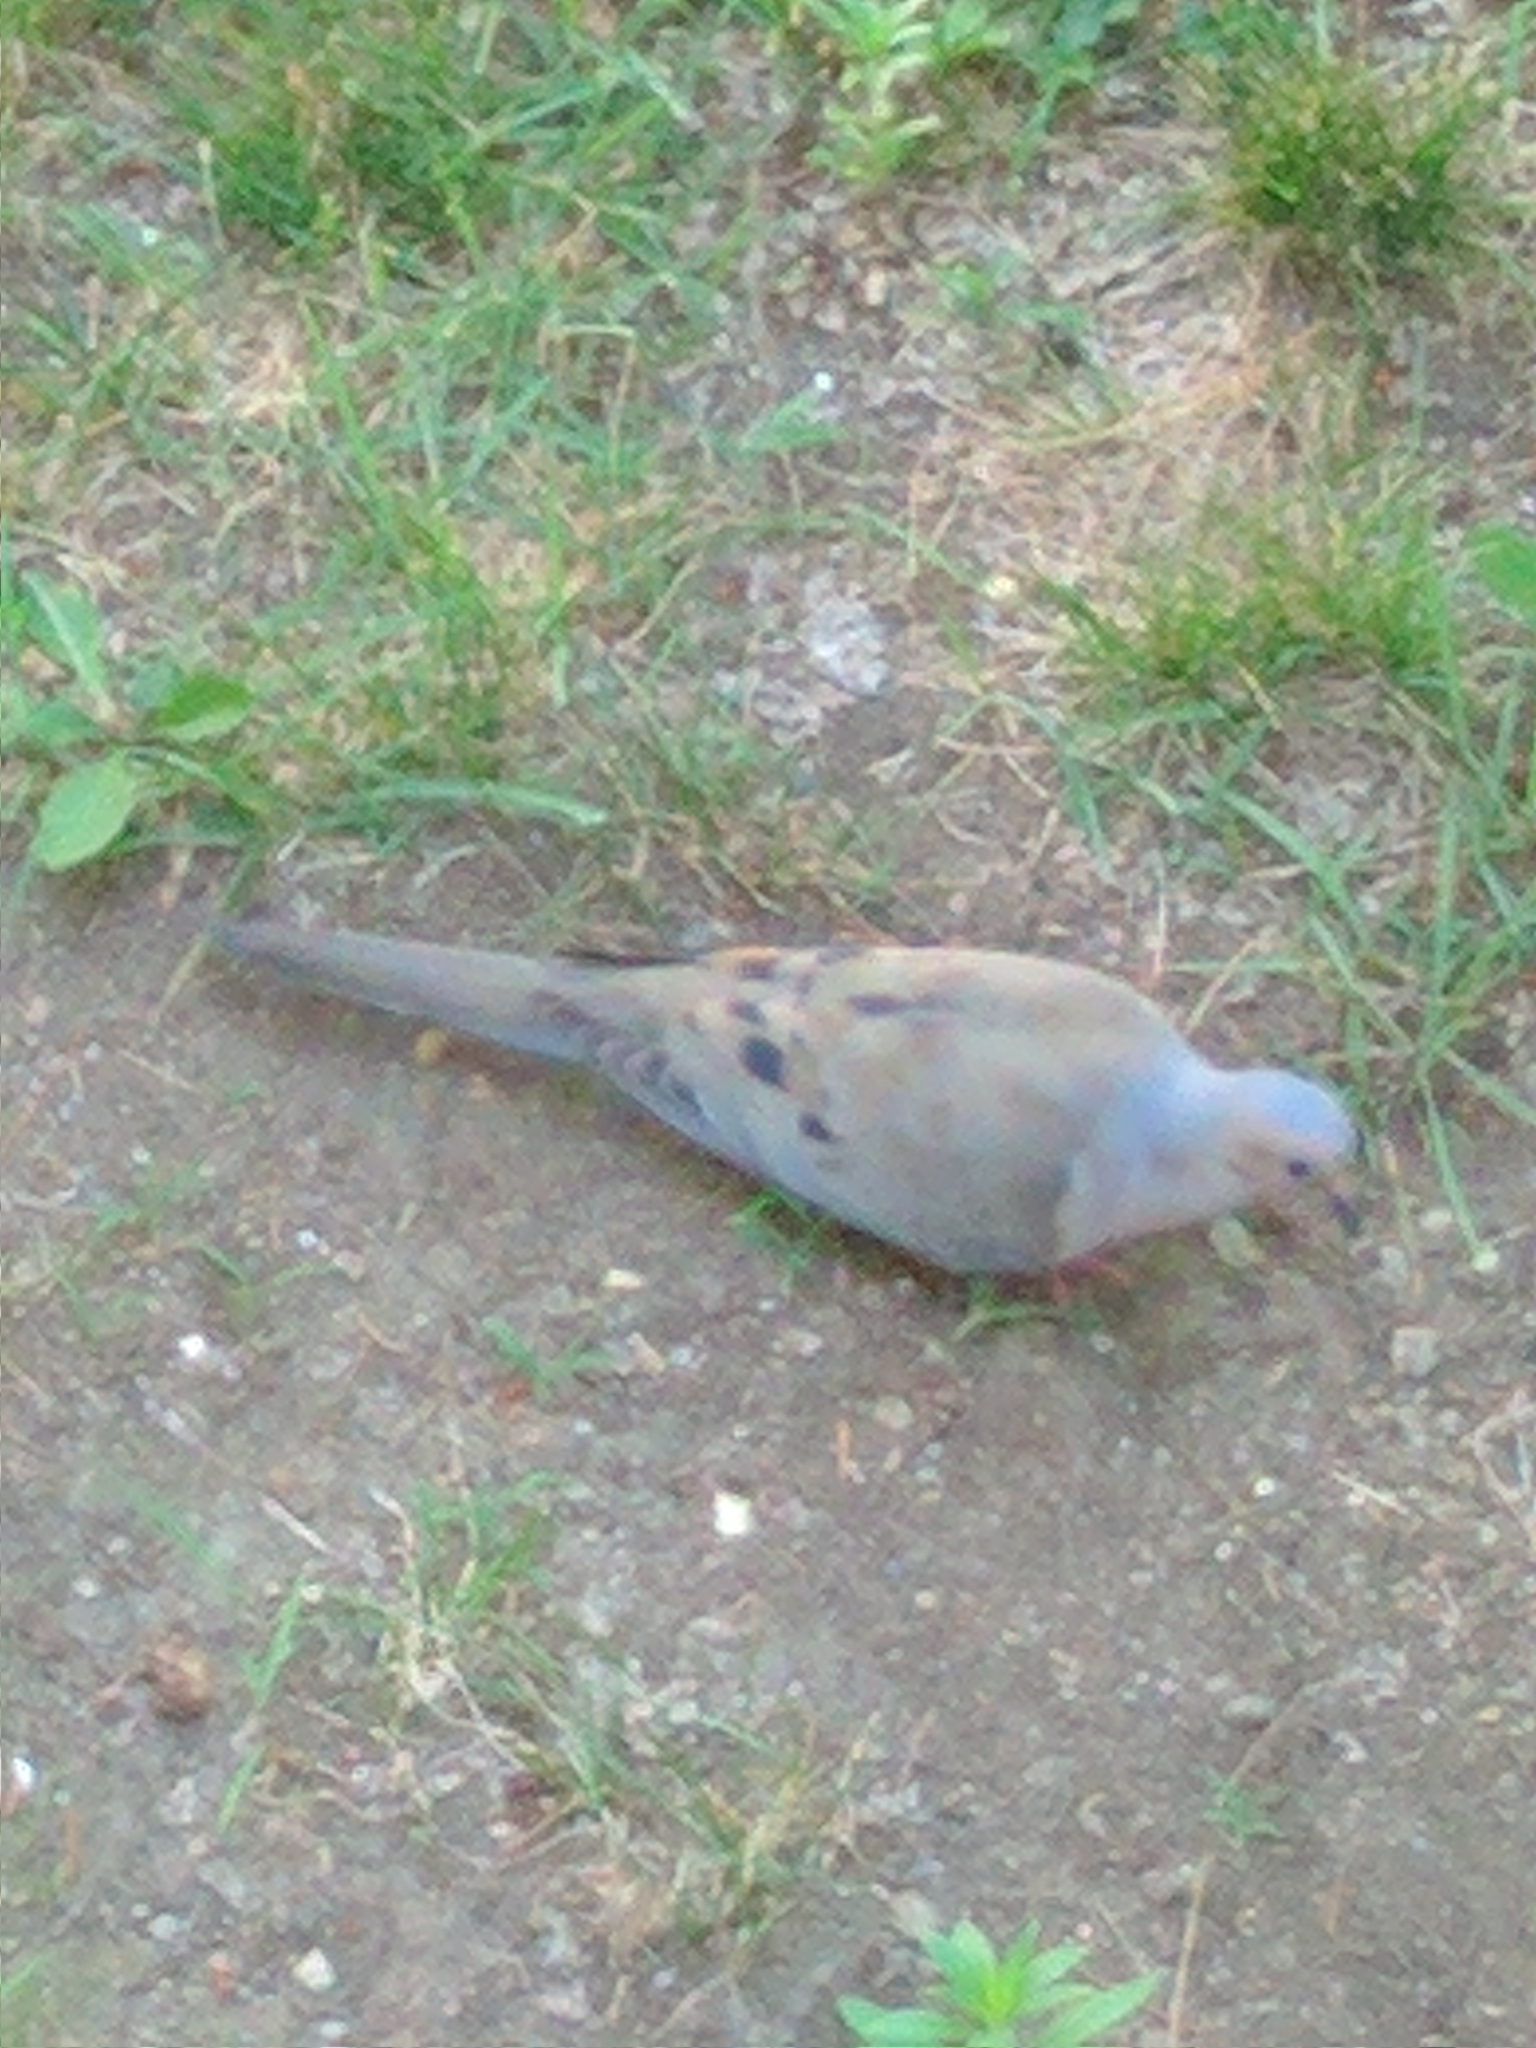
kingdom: Animalia
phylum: Chordata
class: Aves
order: Columbiformes
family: Columbidae
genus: Zenaida
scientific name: Zenaida macroura
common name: Mourning dove
